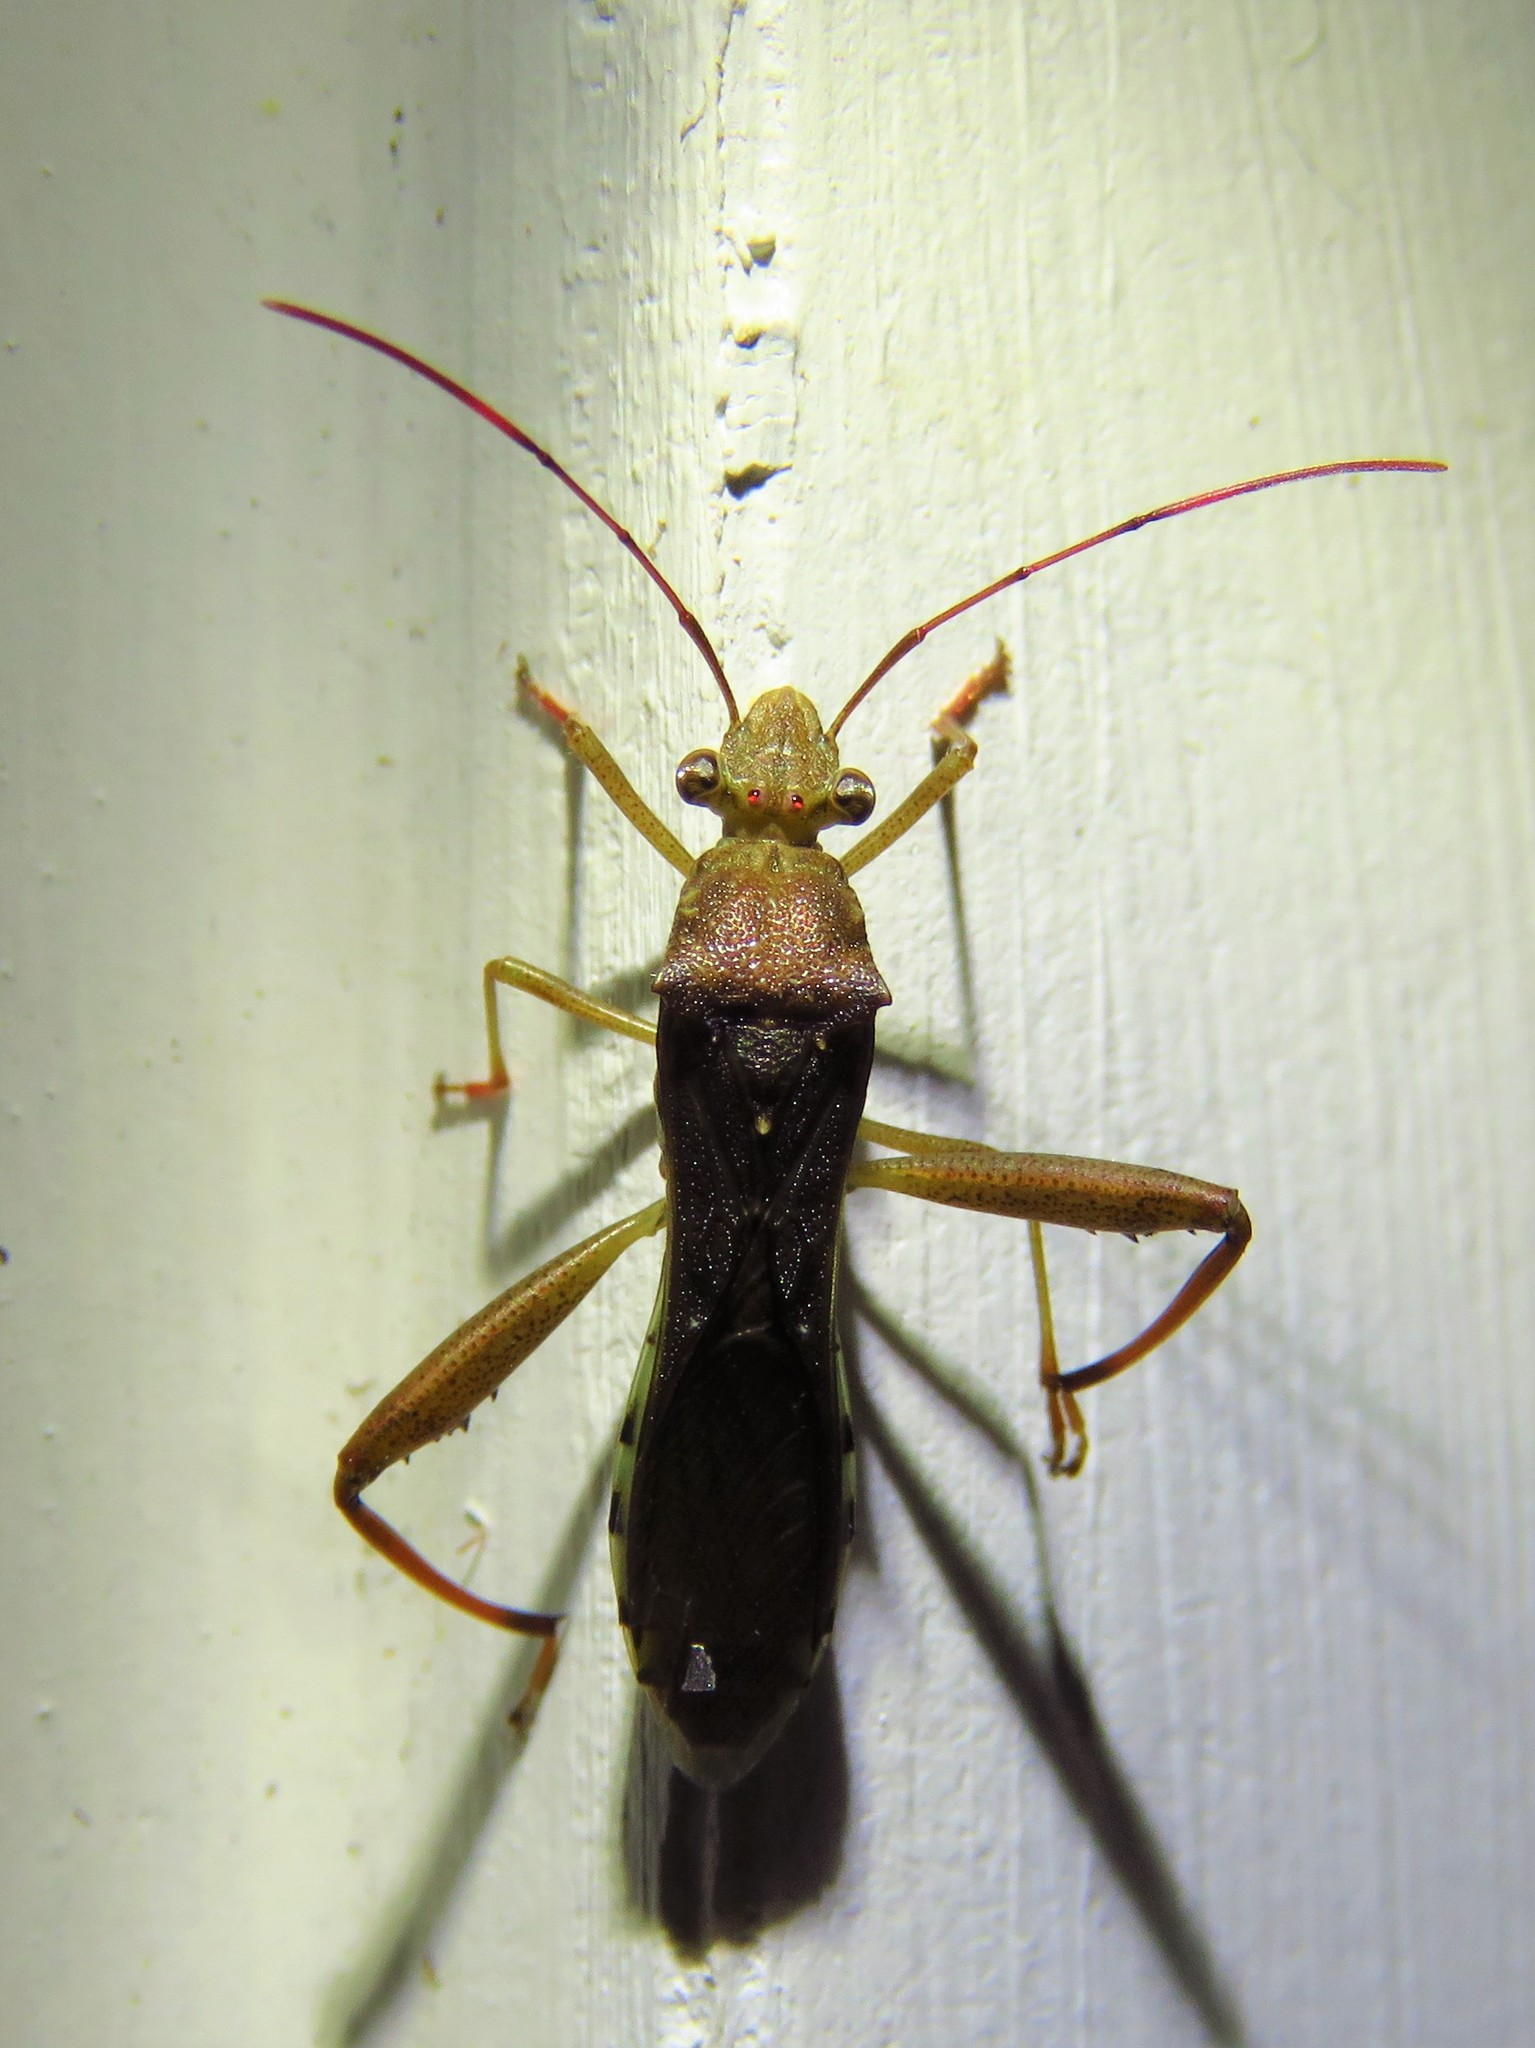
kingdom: Animalia
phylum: Arthropoda
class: Insecta
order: Hemiptera
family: Alydidae
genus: Hyalymenus
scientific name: Hyalymenus tarsatus
